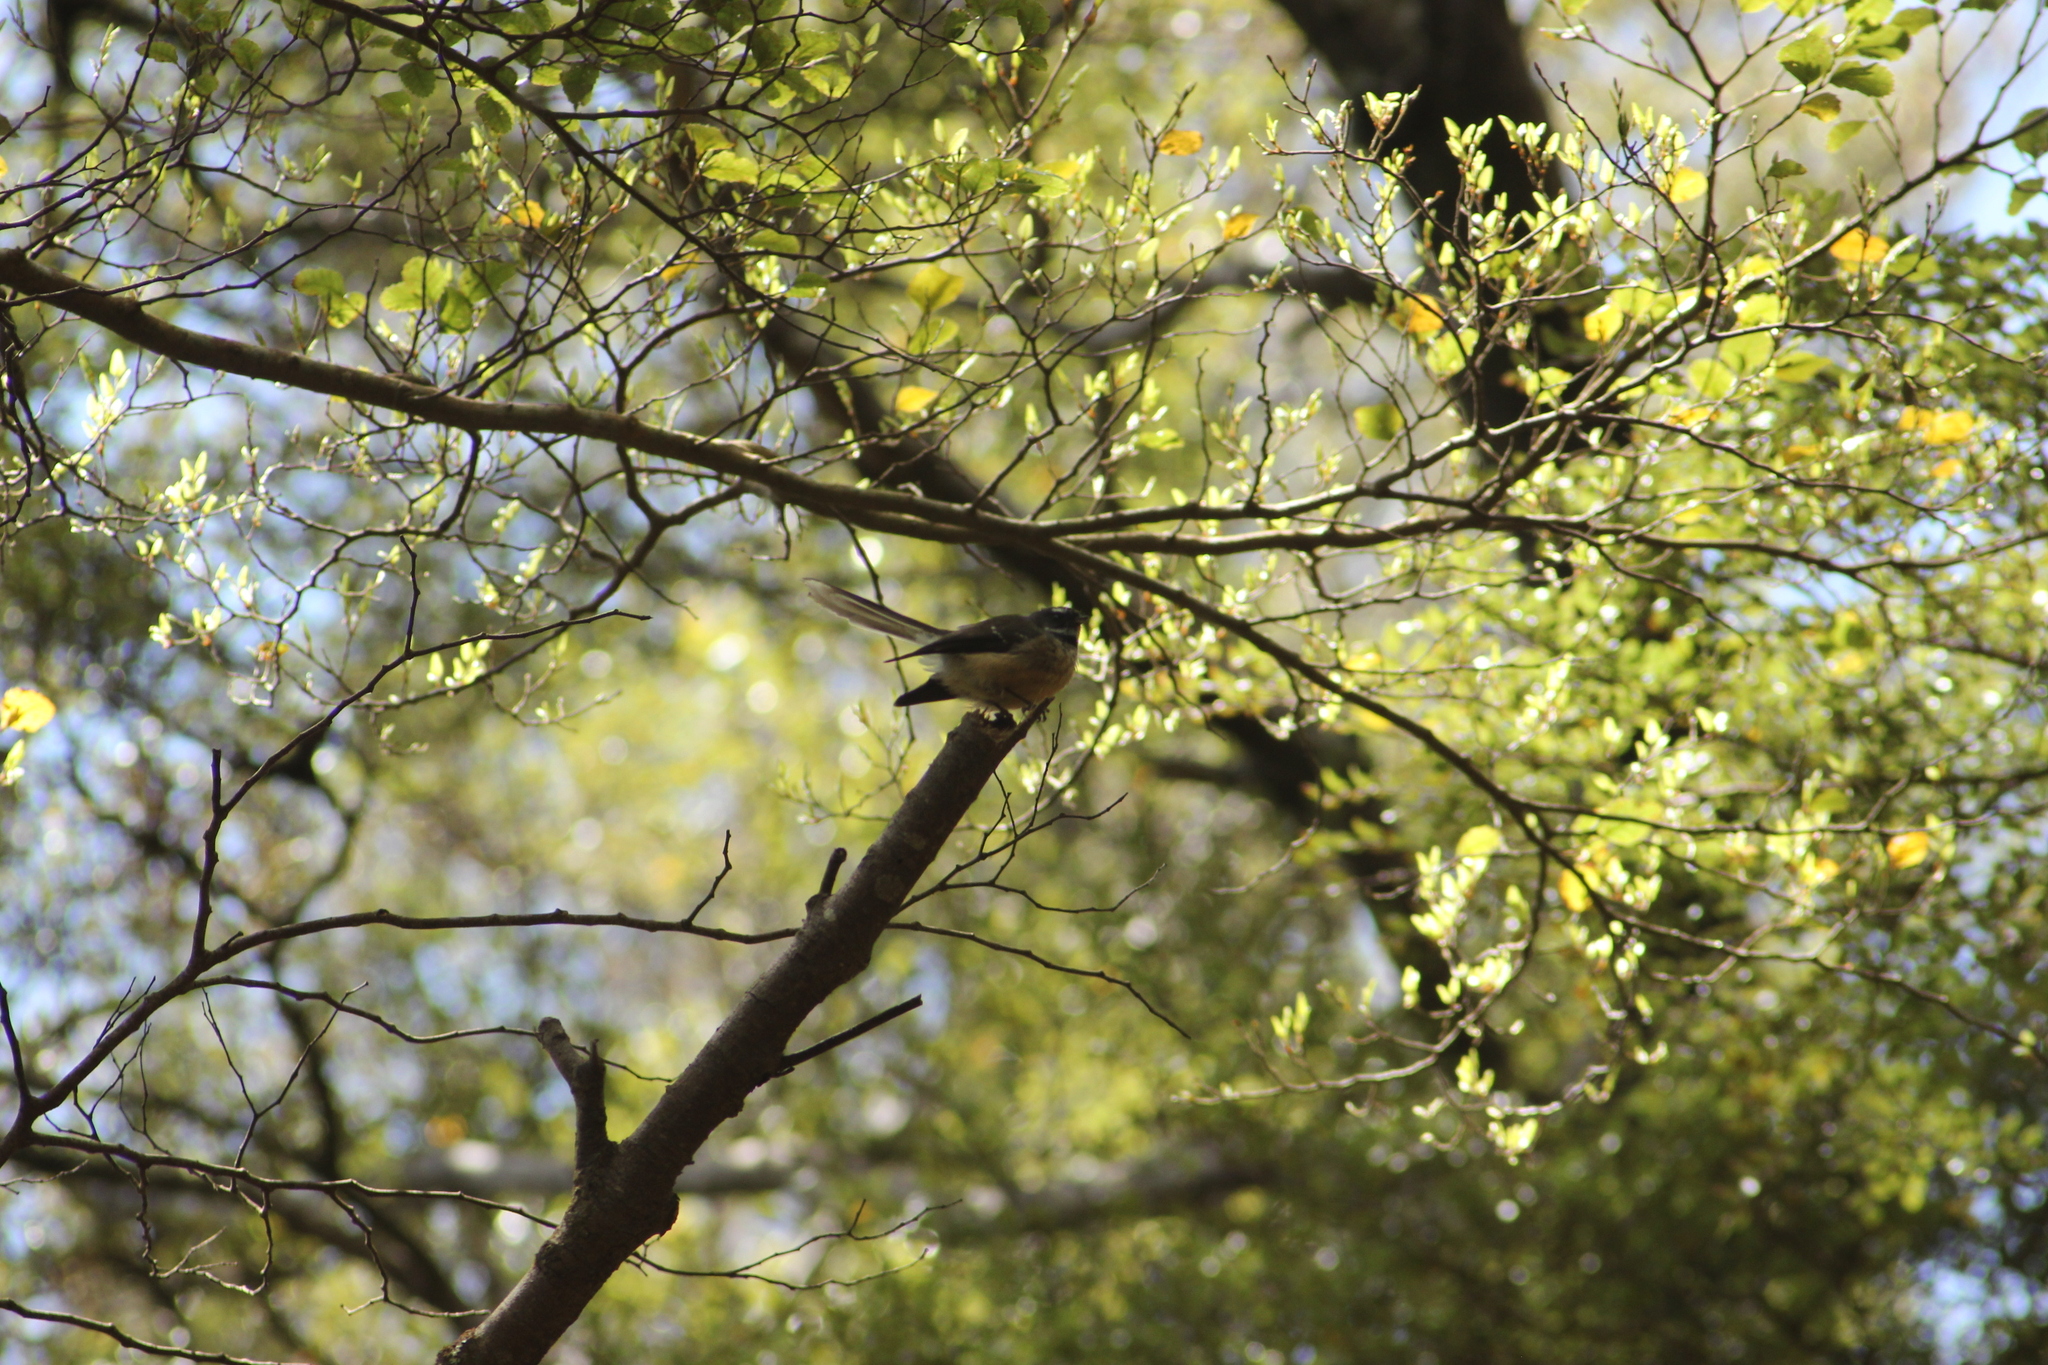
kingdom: Animalia
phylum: Chordata
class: Aves
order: Passeriformes
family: Rhipiduridae
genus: Rhipidura
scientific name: Rhipidura fuliginosa
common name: New zealand fantail
